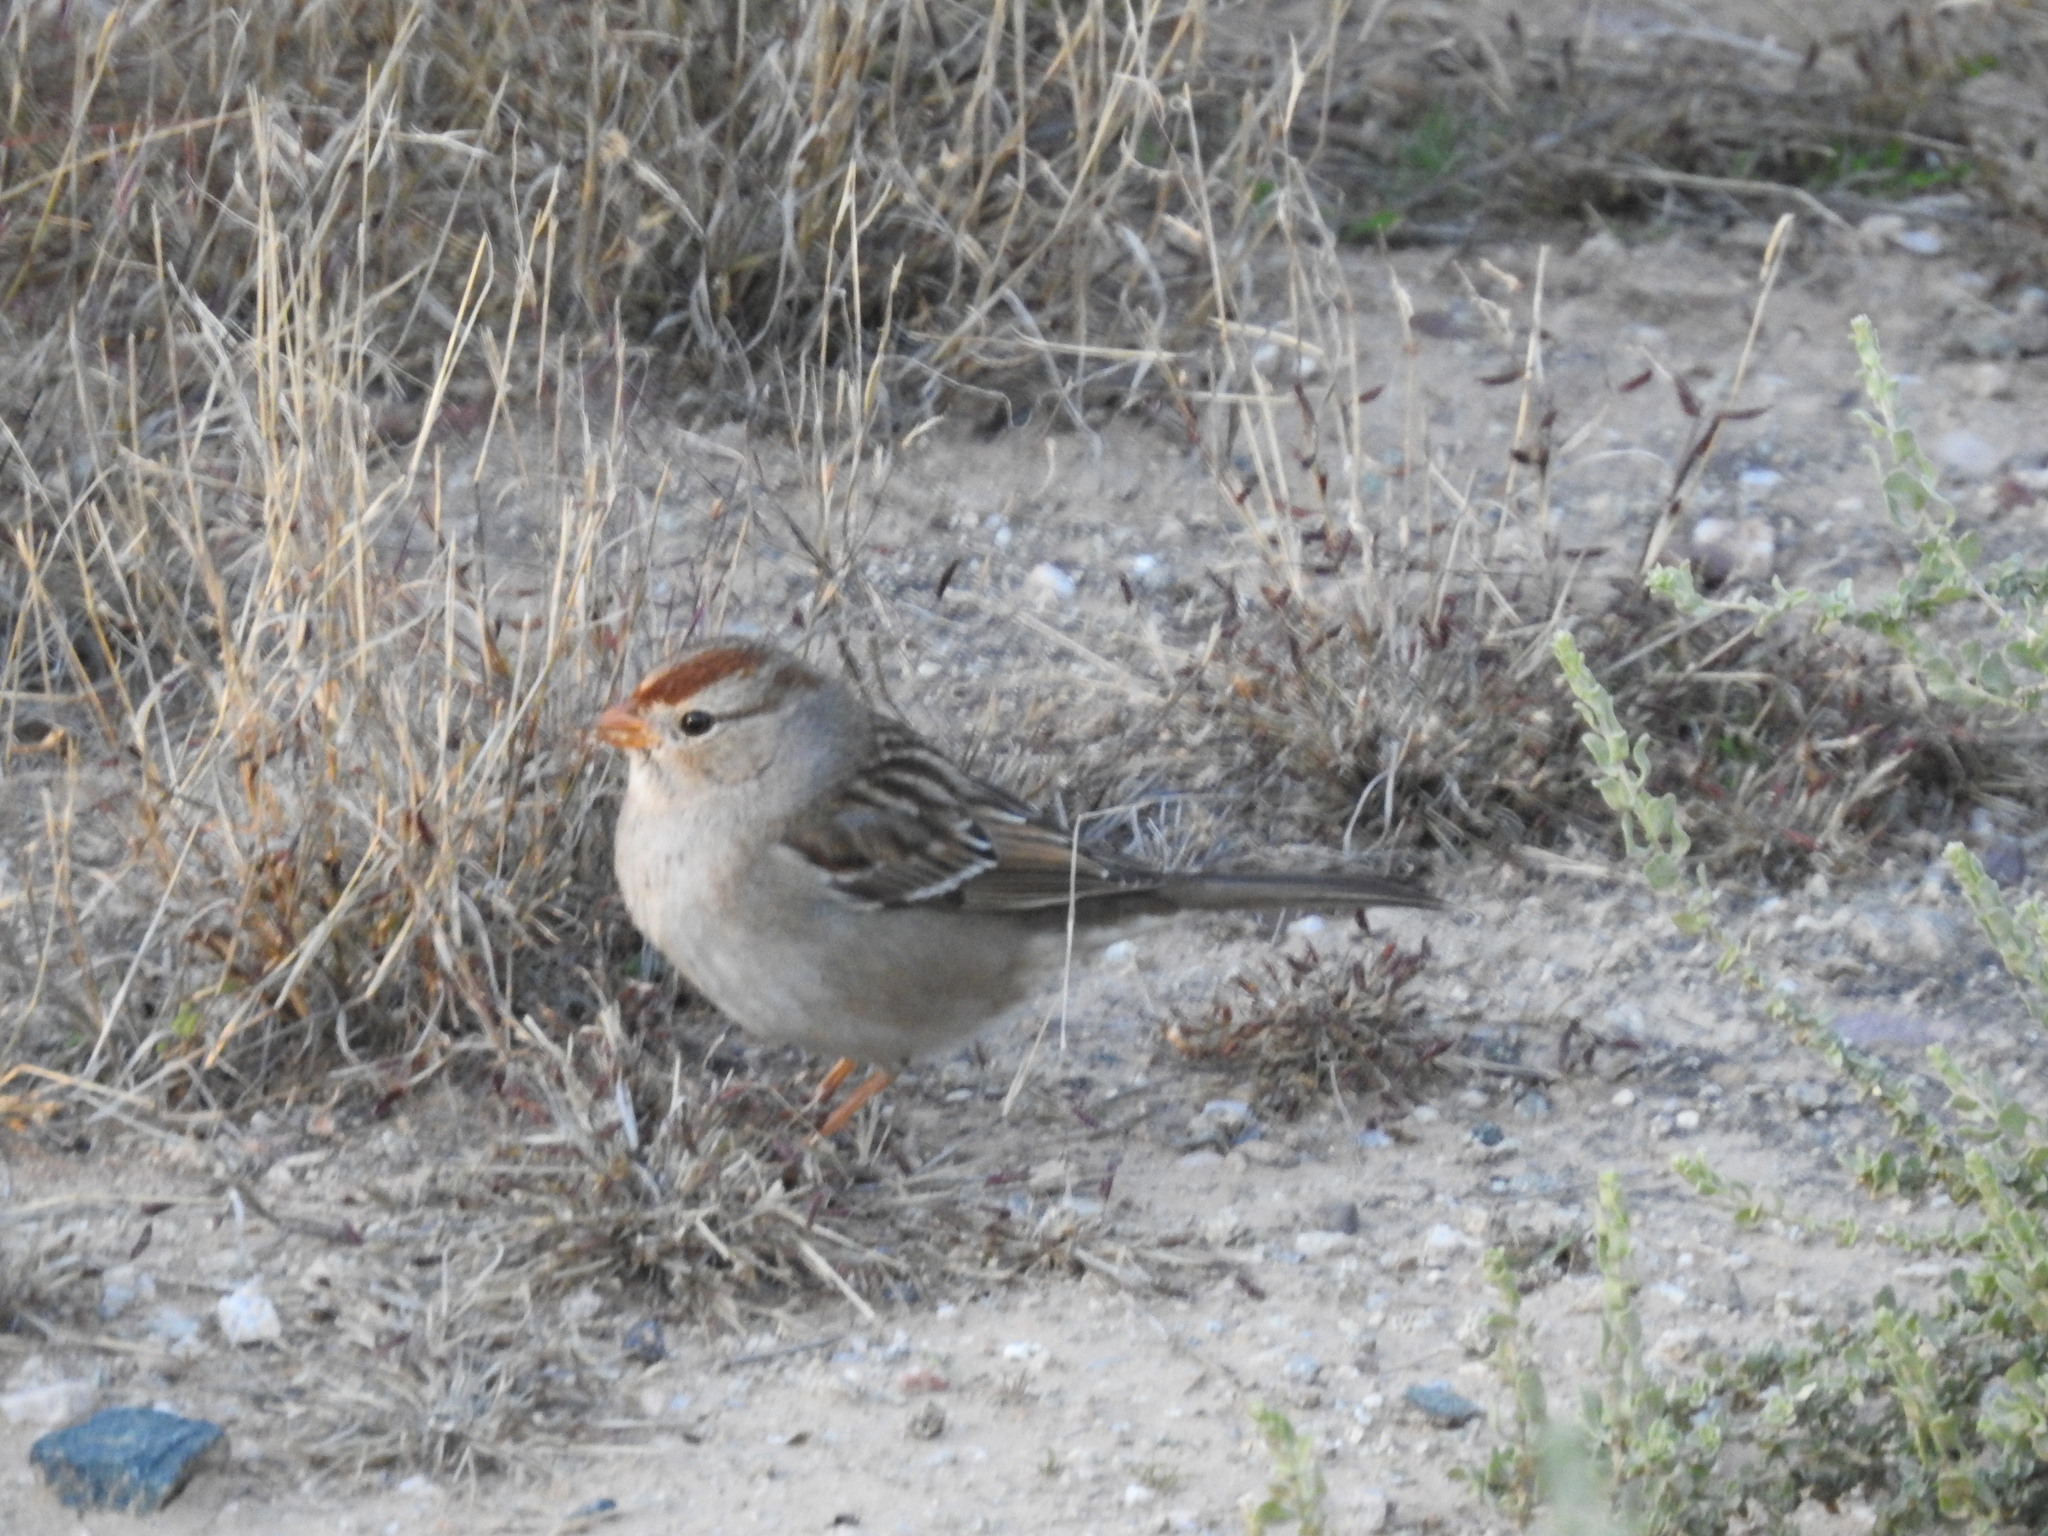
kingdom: Animalia
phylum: Chordata
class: Aves
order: Passeriformes
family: Passerellidae
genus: Zonotrichia
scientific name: Zonotrichia leucophrys
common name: White-crowned sparrow
